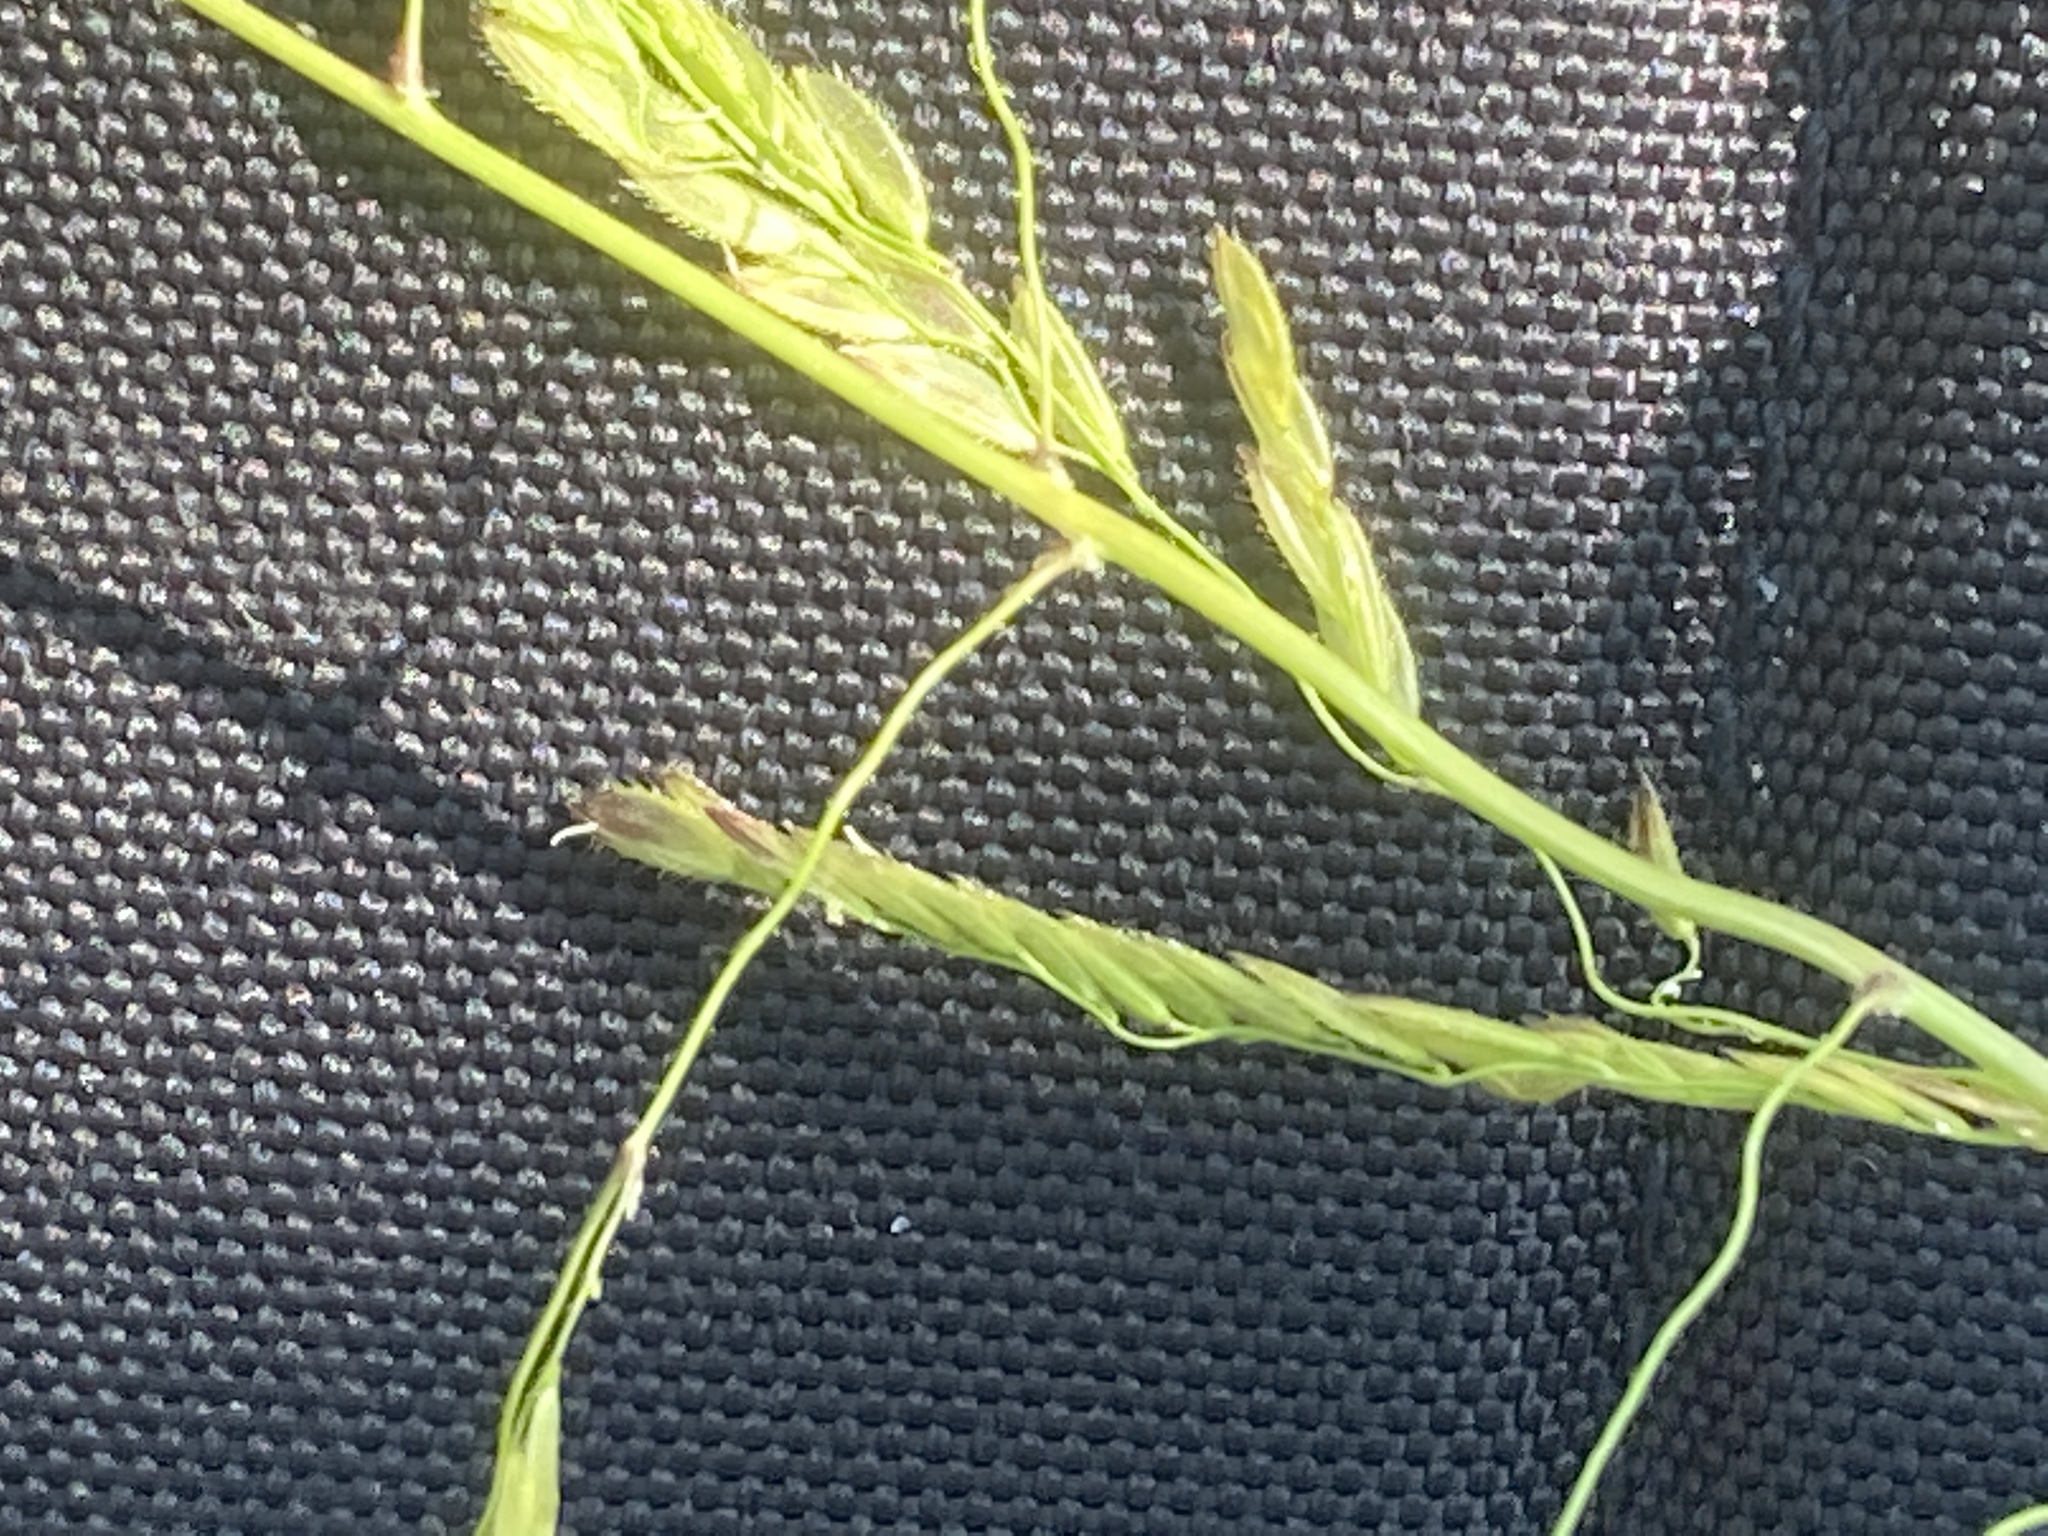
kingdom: Plantae
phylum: Tracheophyta
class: Liliopsida
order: Poales
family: Poaceae
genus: Leersia
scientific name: Leersia oryzoides
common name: Cut-grass
